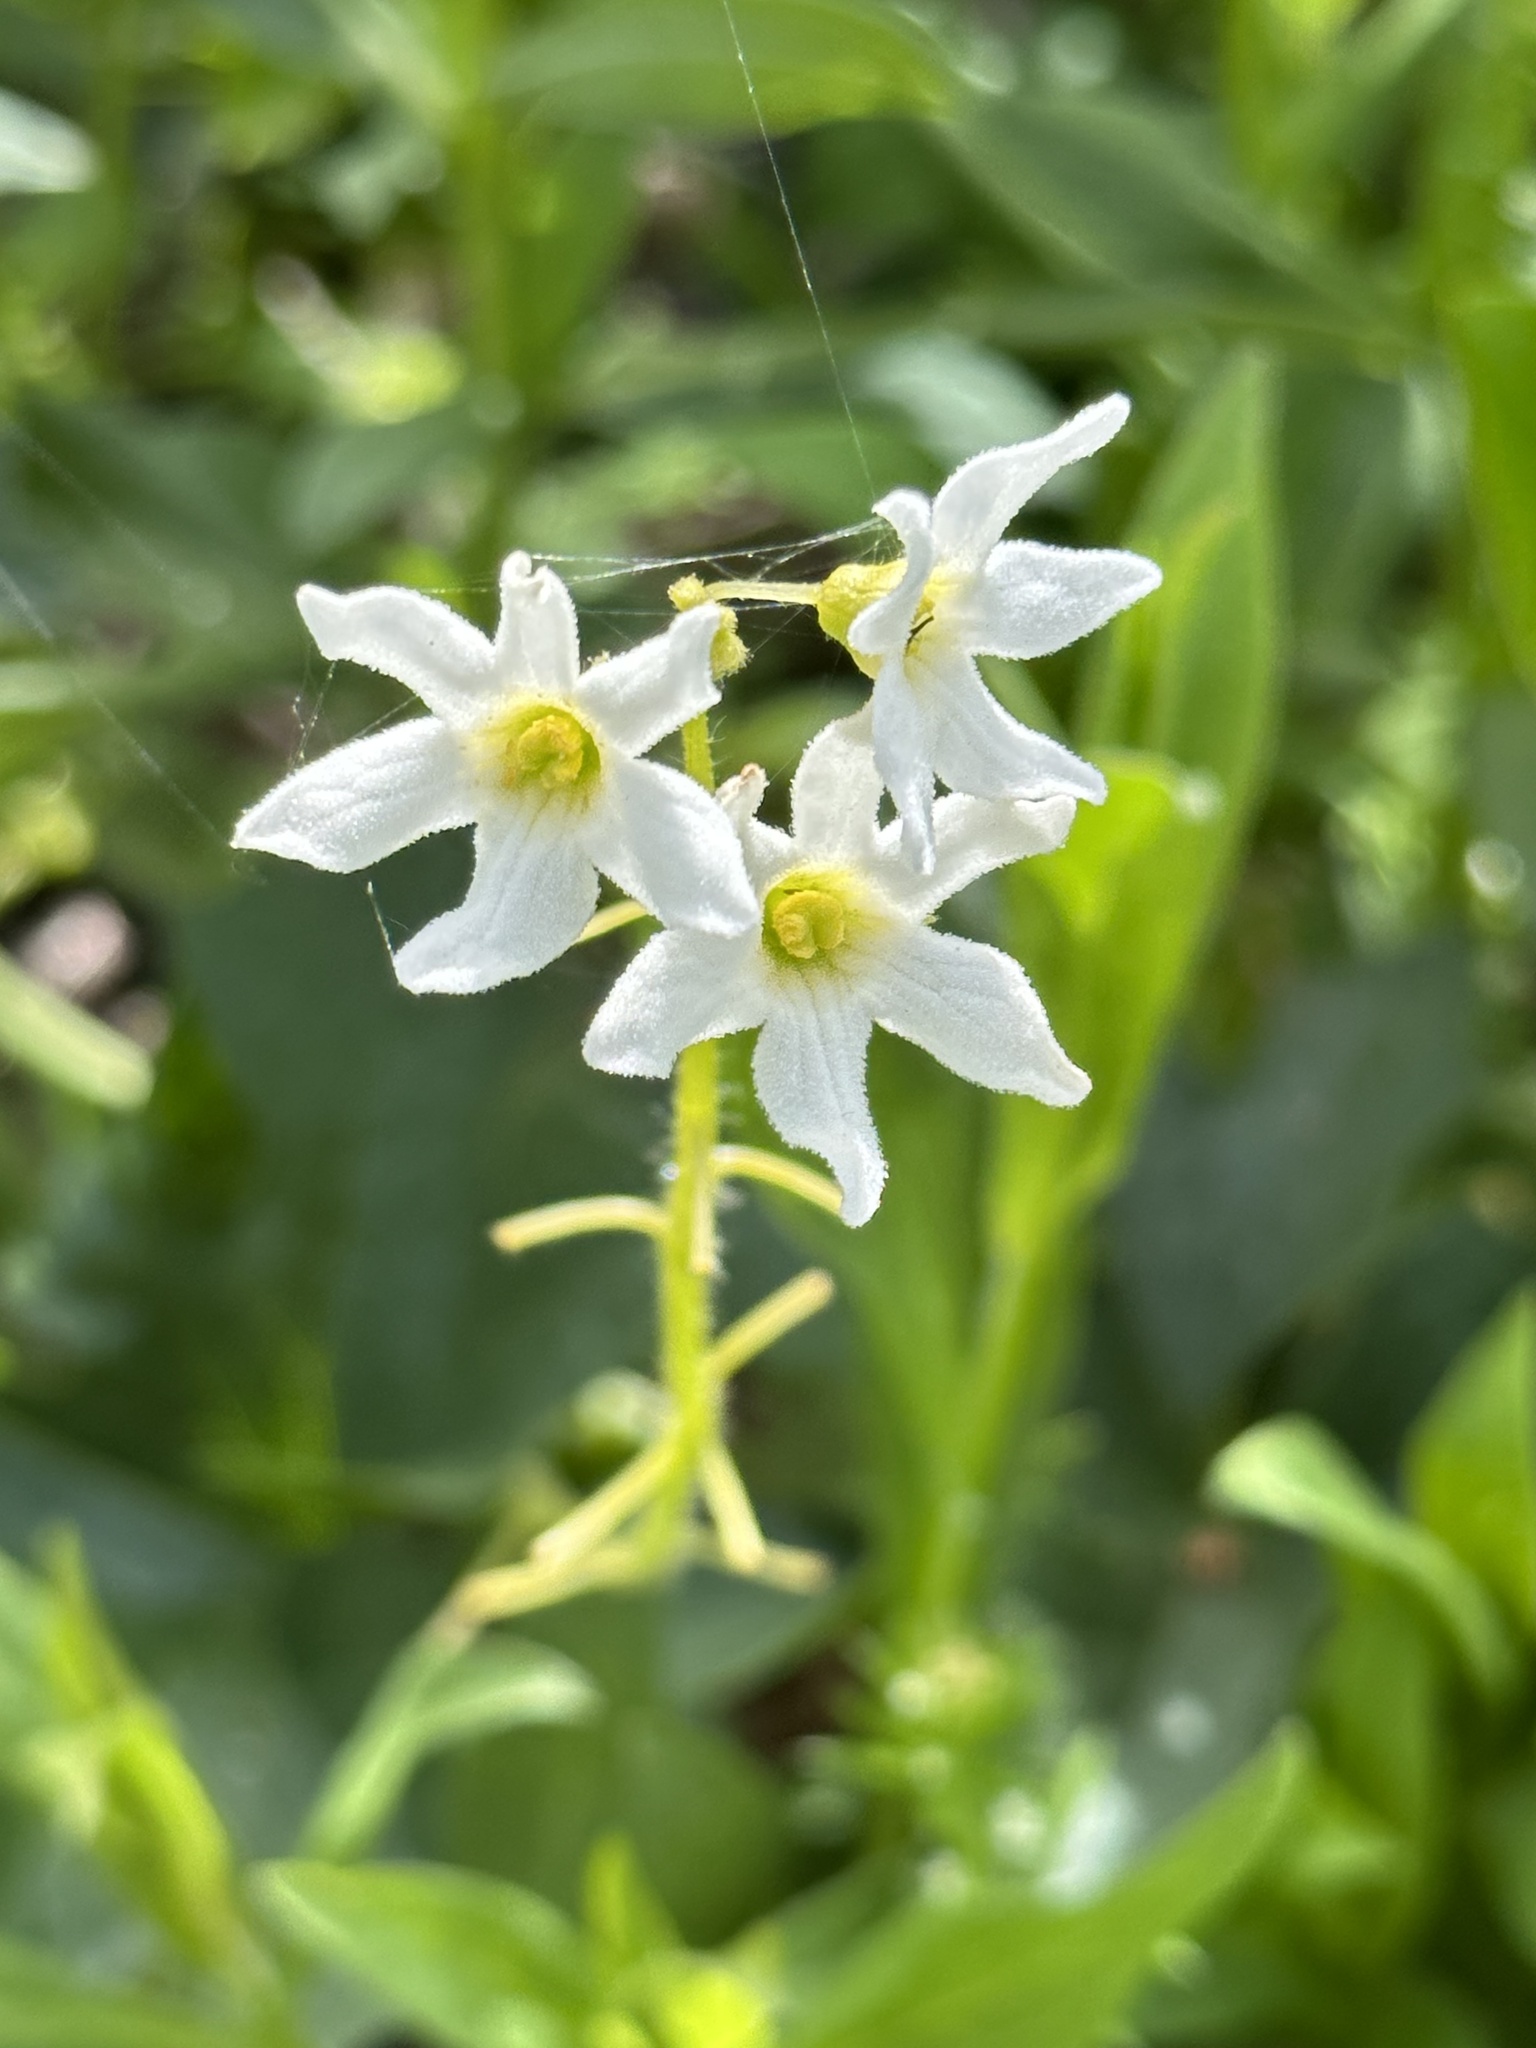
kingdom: Plantae
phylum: Tracheophyta
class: Magnoliopsida
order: Cucurbitales
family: Cucurbitaceae
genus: Marah
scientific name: Marah oregana
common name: Coastal manroot
